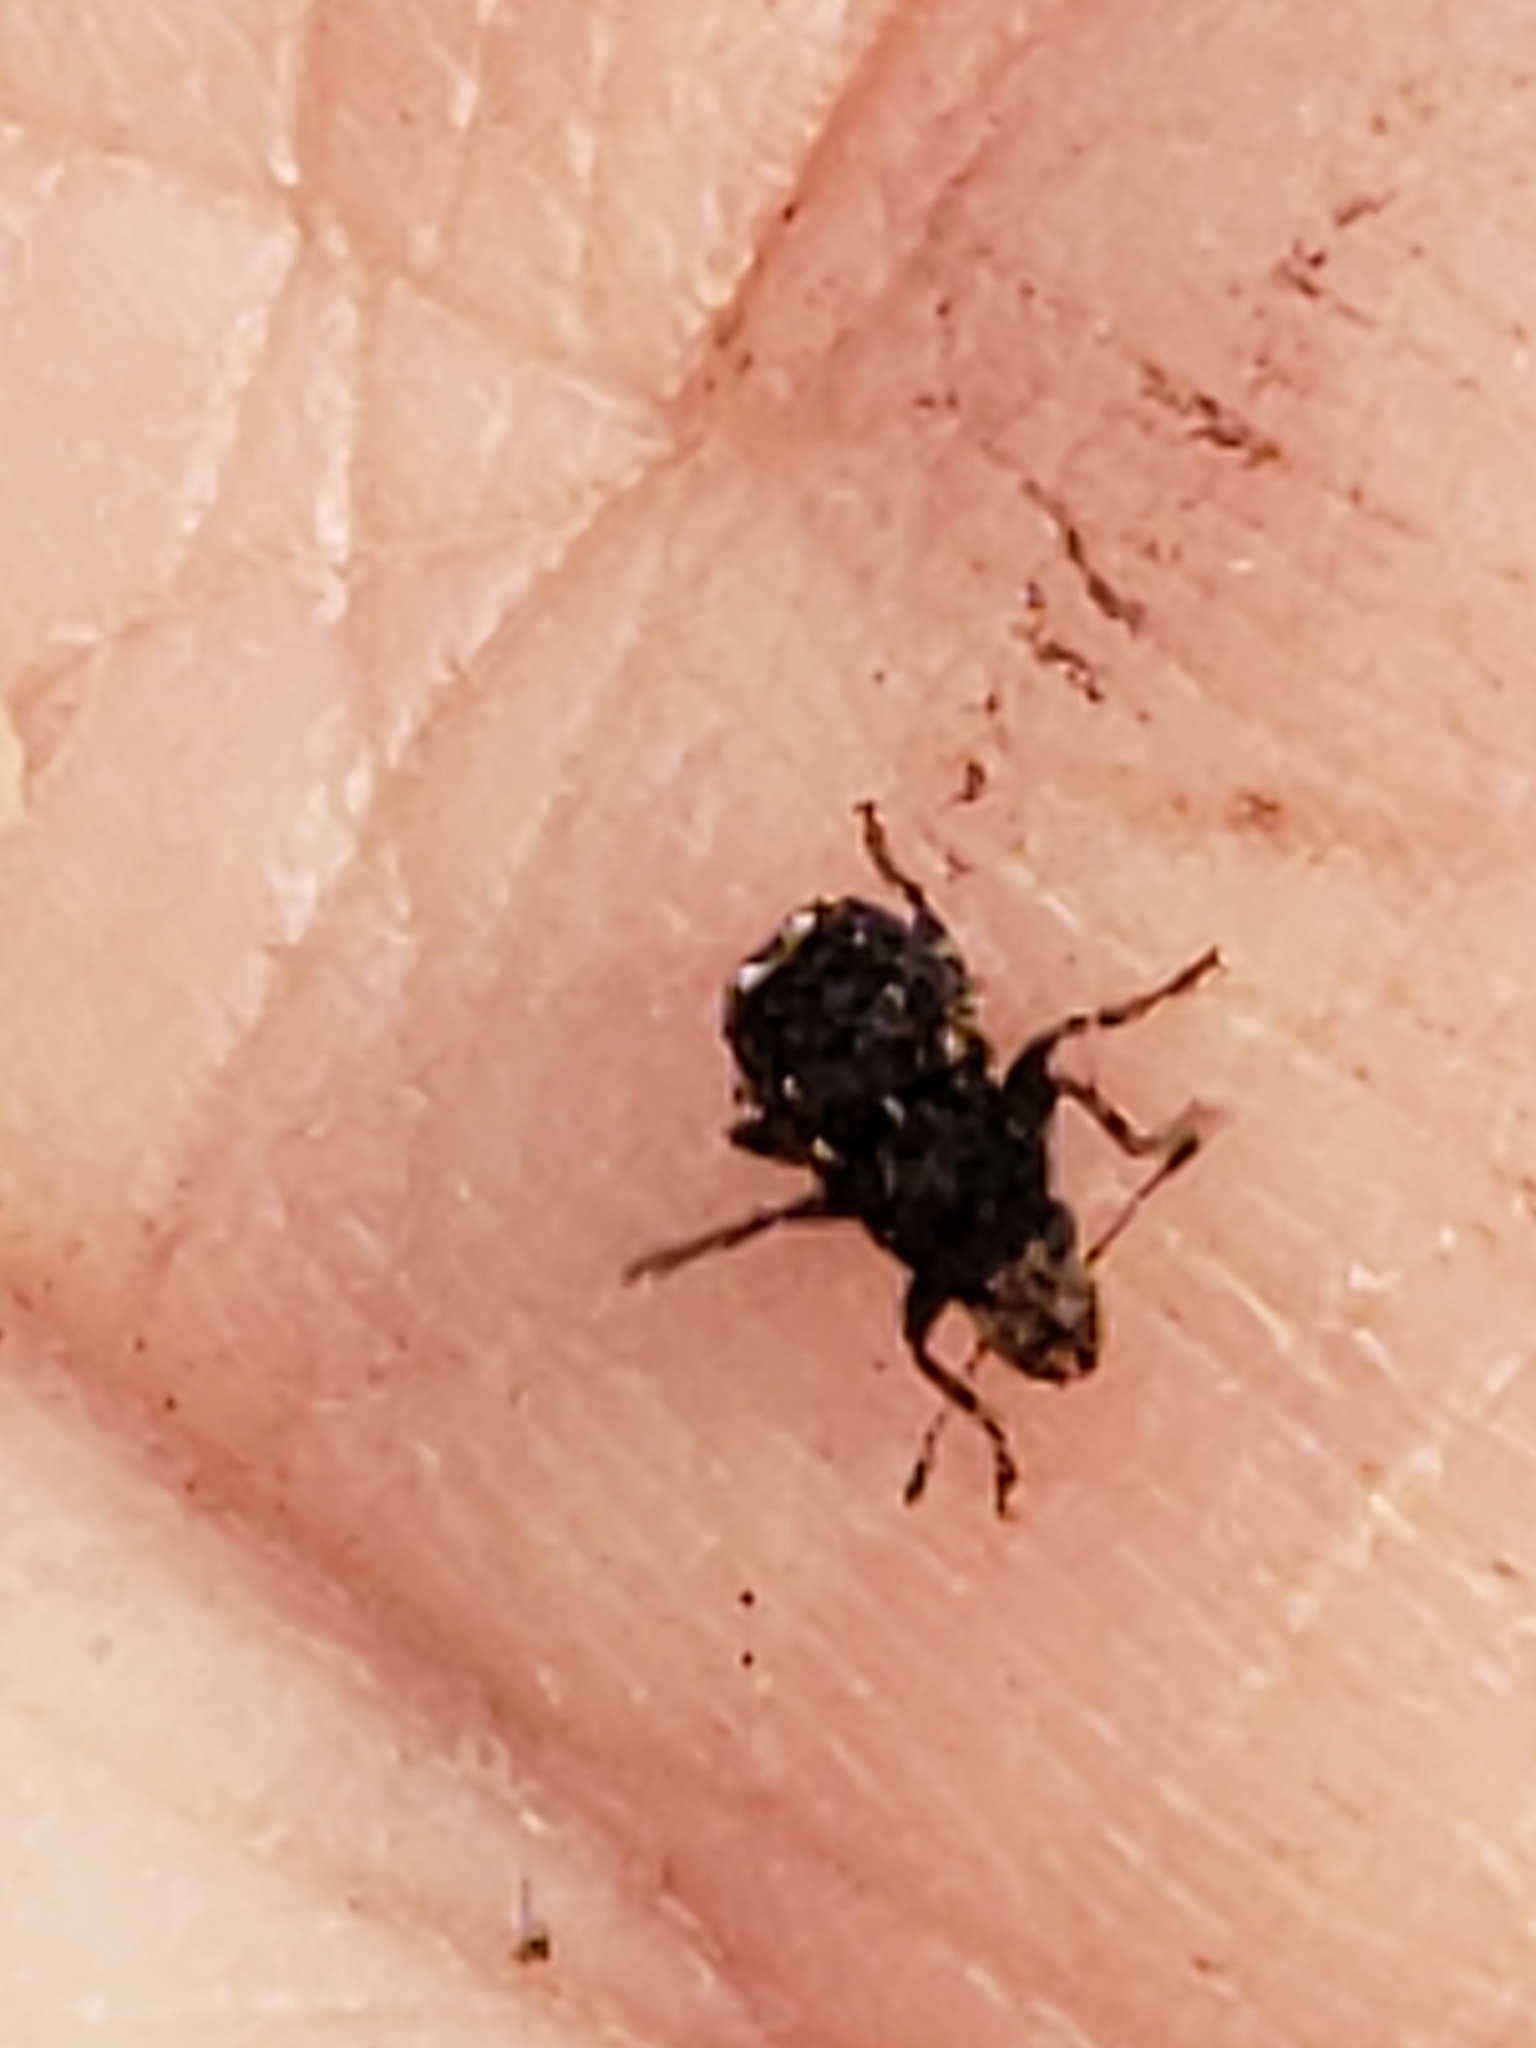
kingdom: Animalia
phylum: Arthropoda
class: Insecta
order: Coleoptera
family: Anthribidae
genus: Goniocloeus
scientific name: Goniocloeus bimaculatus
